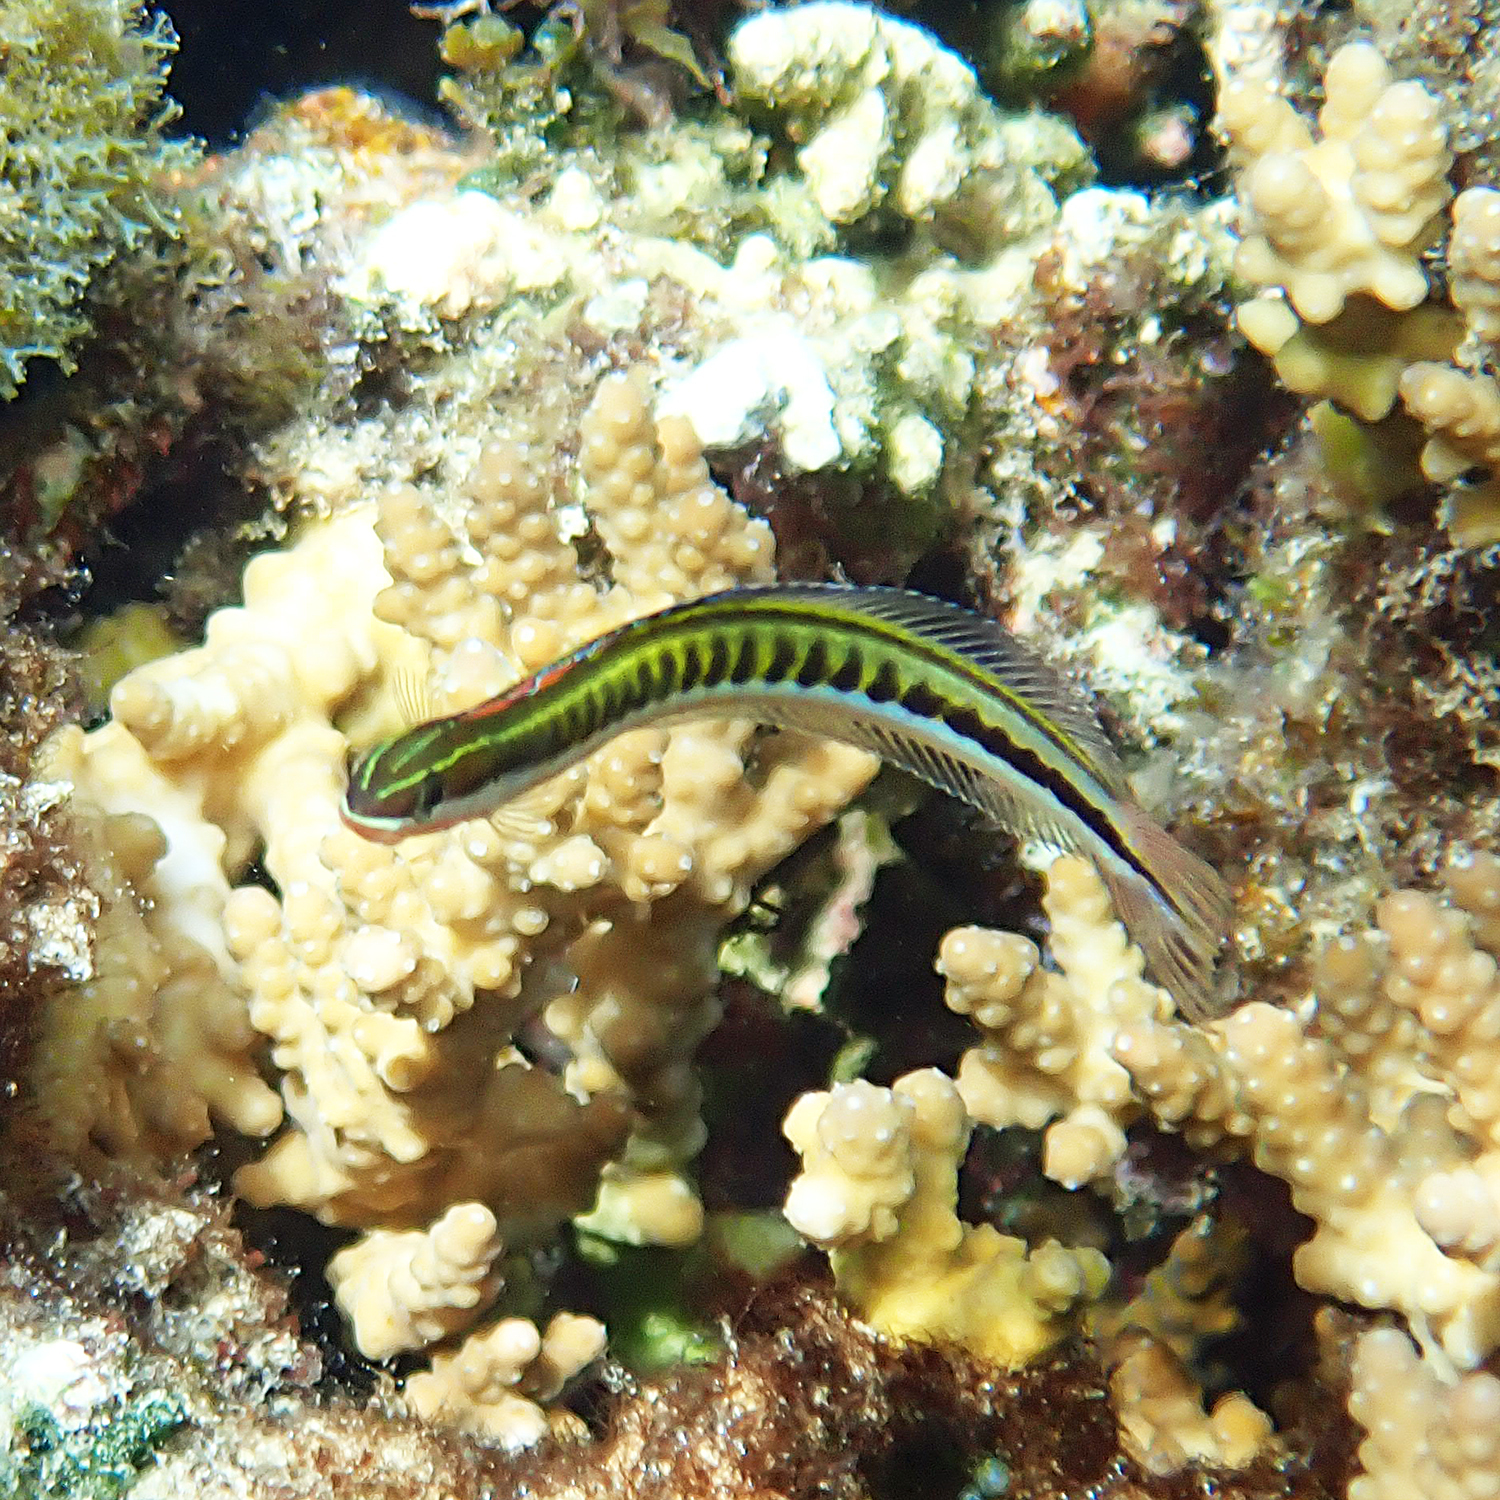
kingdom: Animalia
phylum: Chordata
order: Perciformes
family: Blenniidae
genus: Plagiotremus
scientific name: Plagiotremus tapeinosoma
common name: Hit and run blenny
